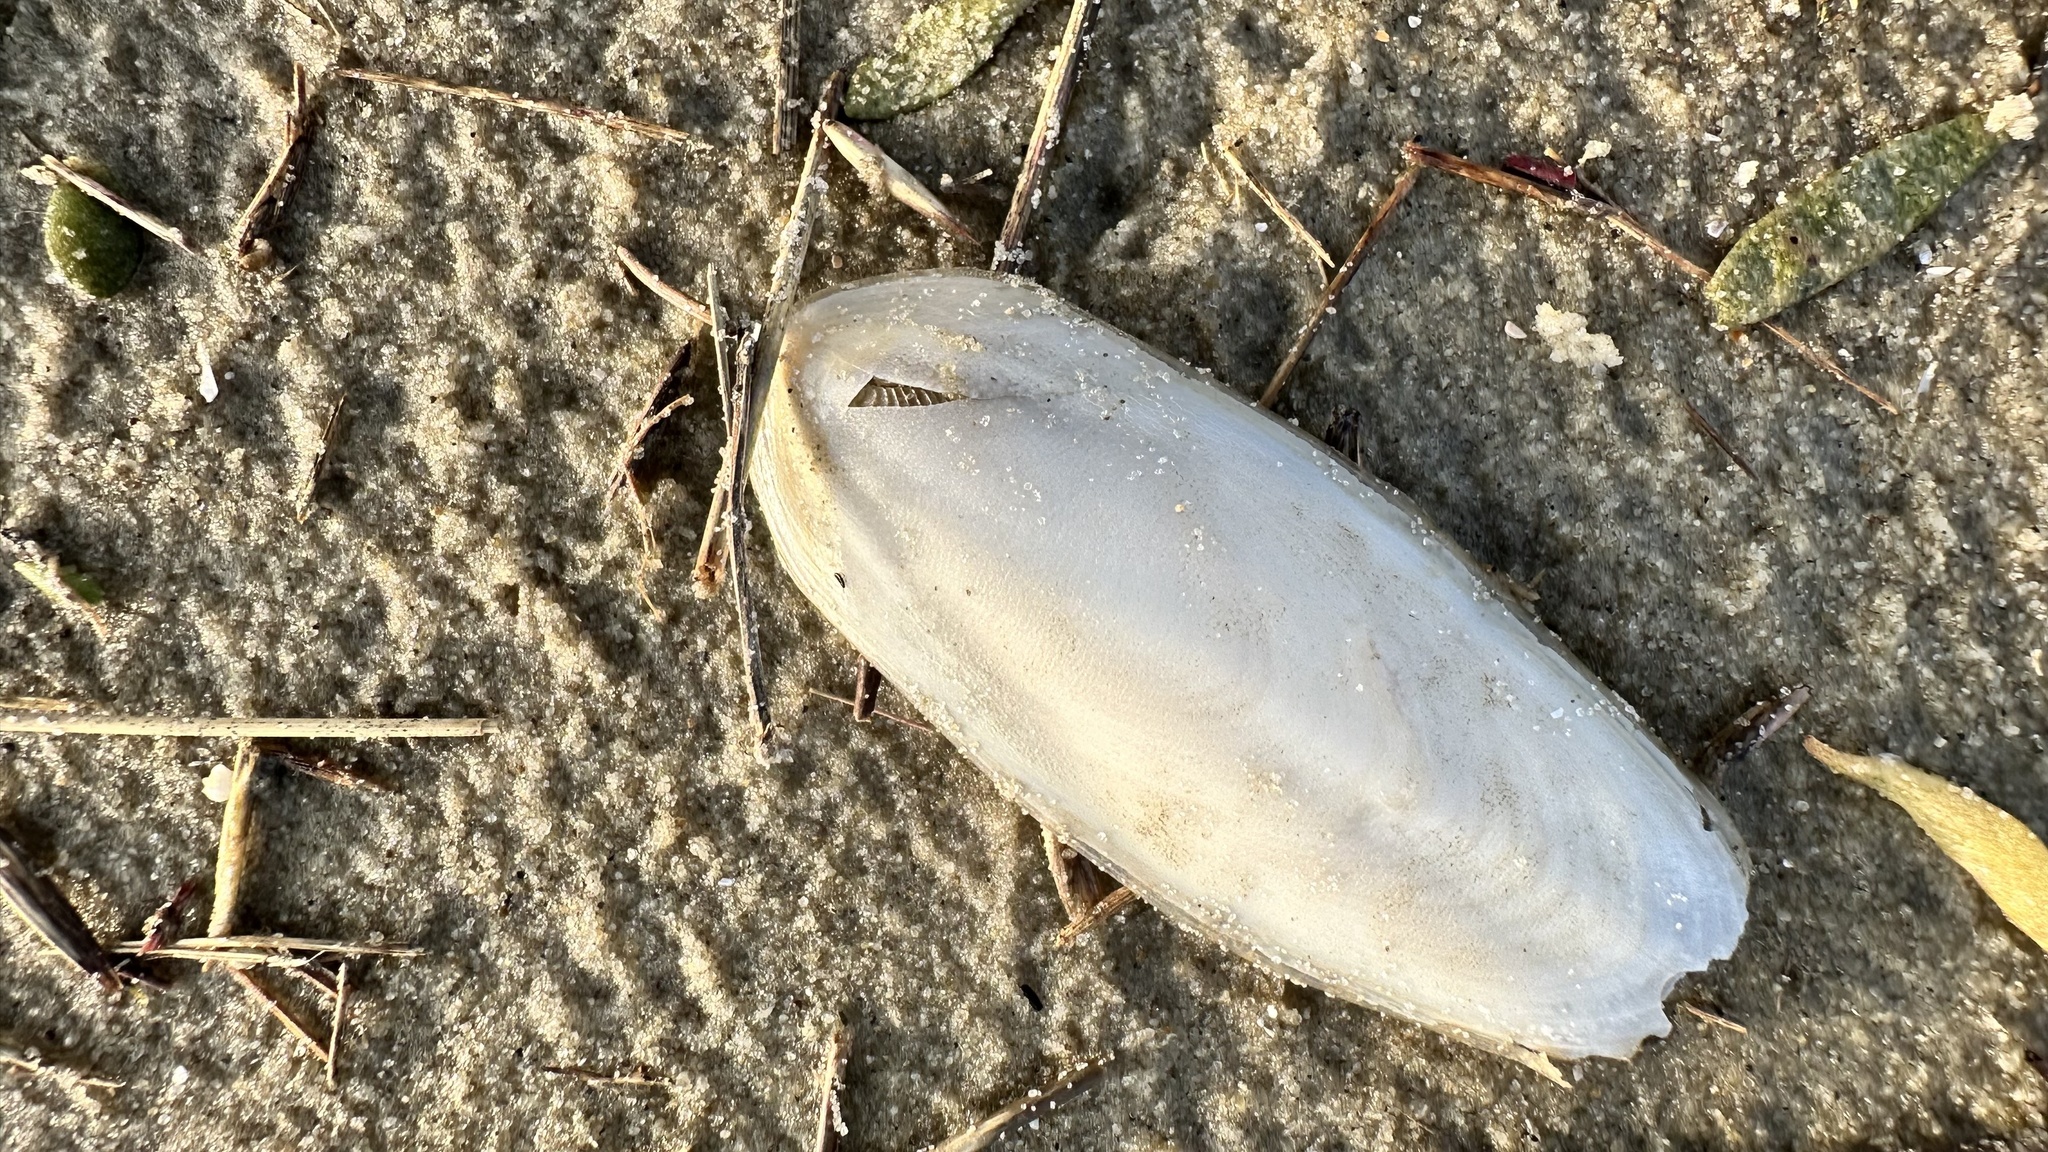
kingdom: Animalia
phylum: Mollusca
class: Cephalopoda
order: Sepiida
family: Sepiidae
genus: Sepia
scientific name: Sepia officinalis
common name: Common cuttlefish
